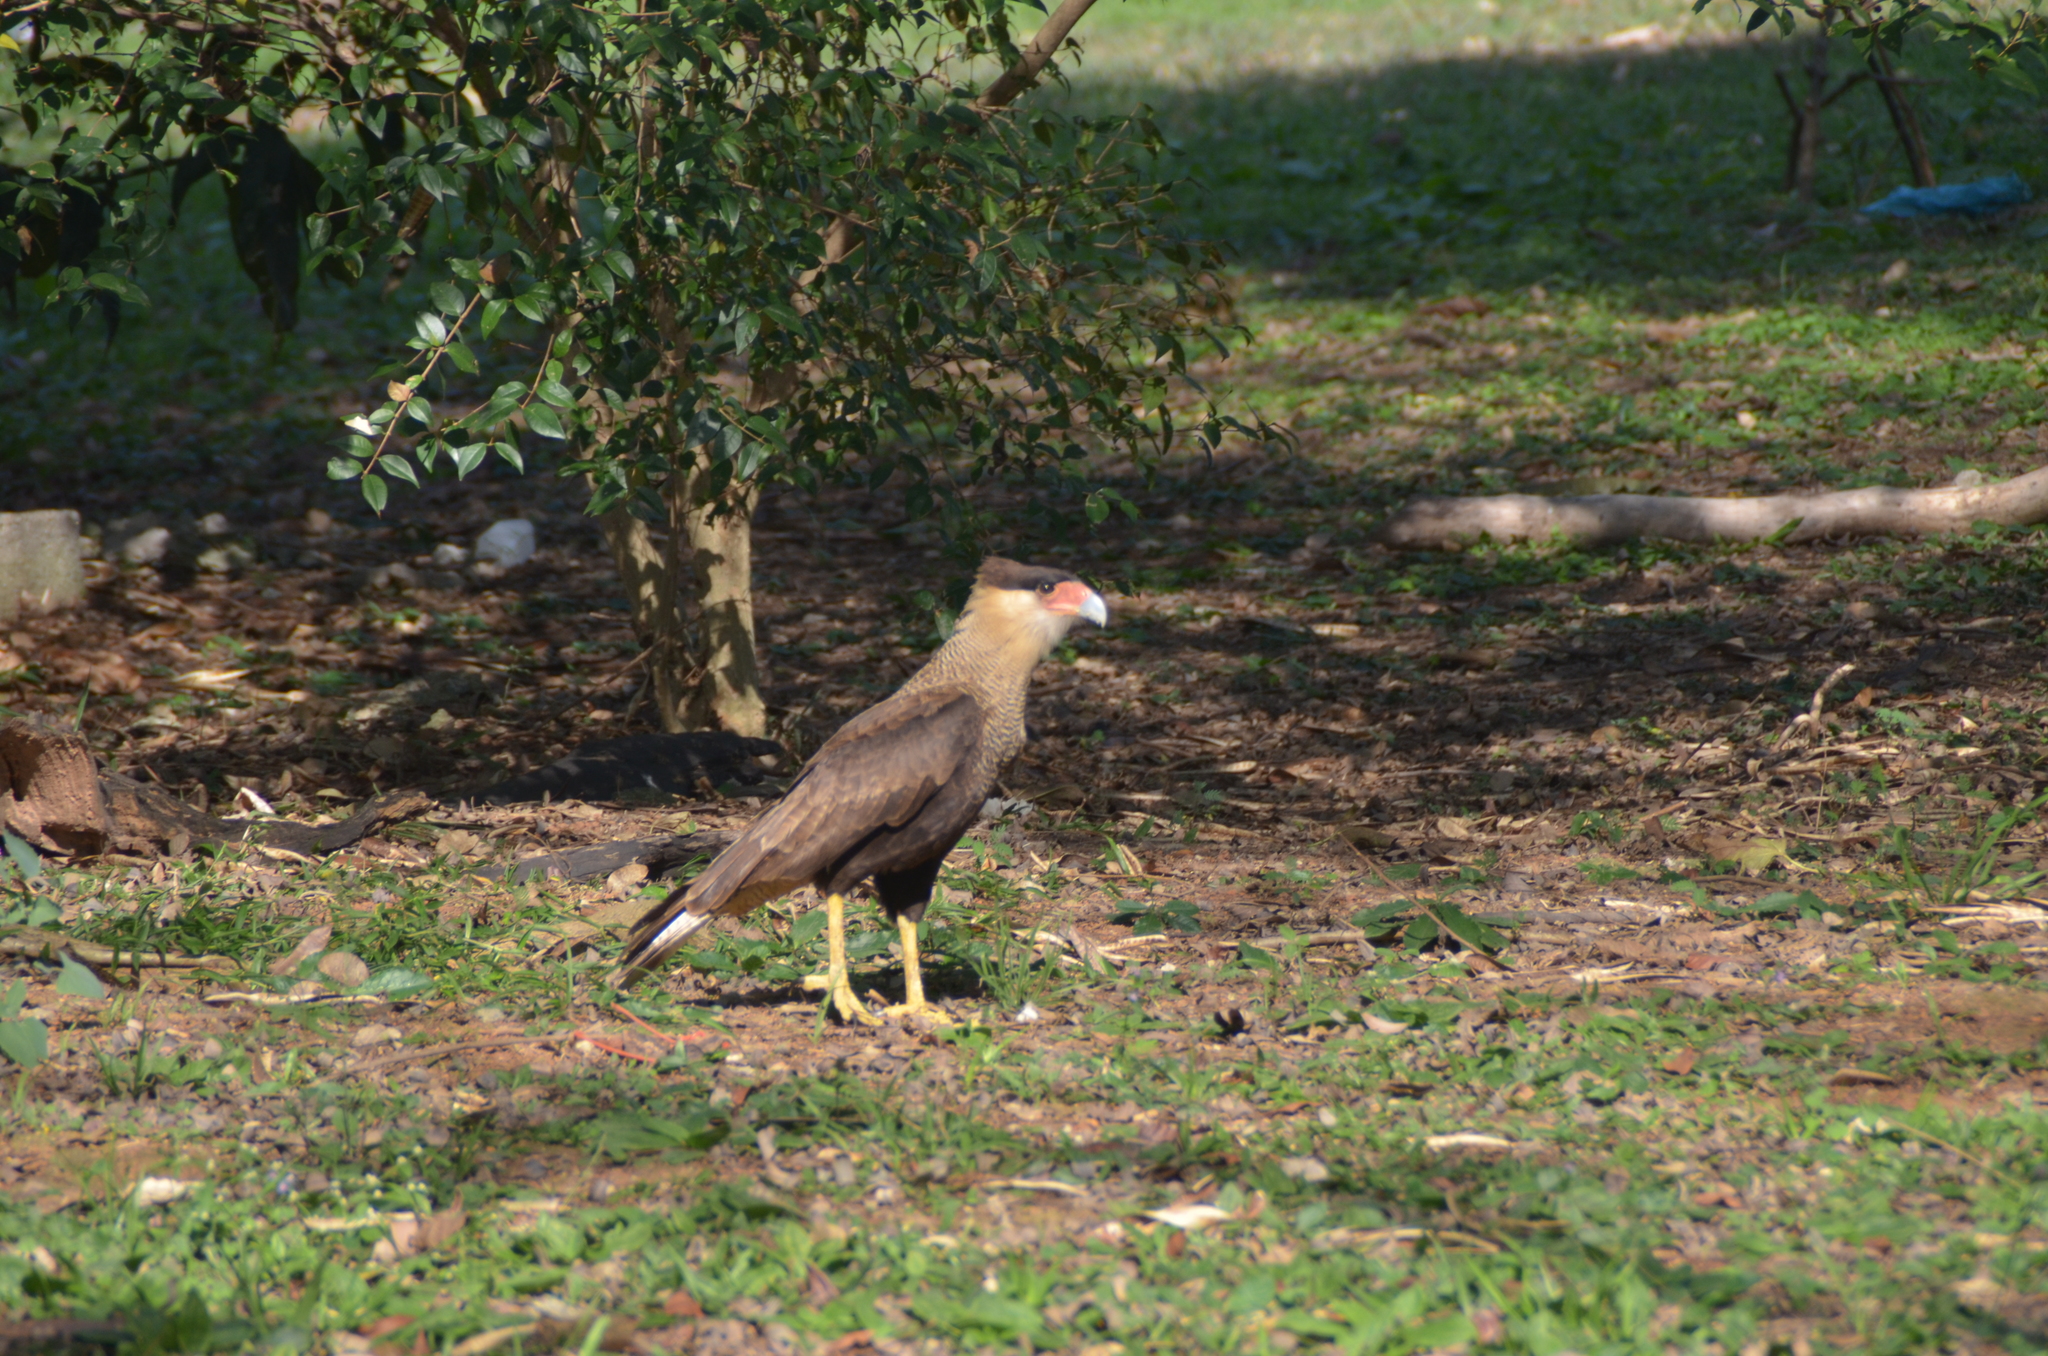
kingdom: Animalia
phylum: Chordata
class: Aves
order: Falconiformes
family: Falconidae
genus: Caracara
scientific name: Caracara plancus
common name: Southern caracara
